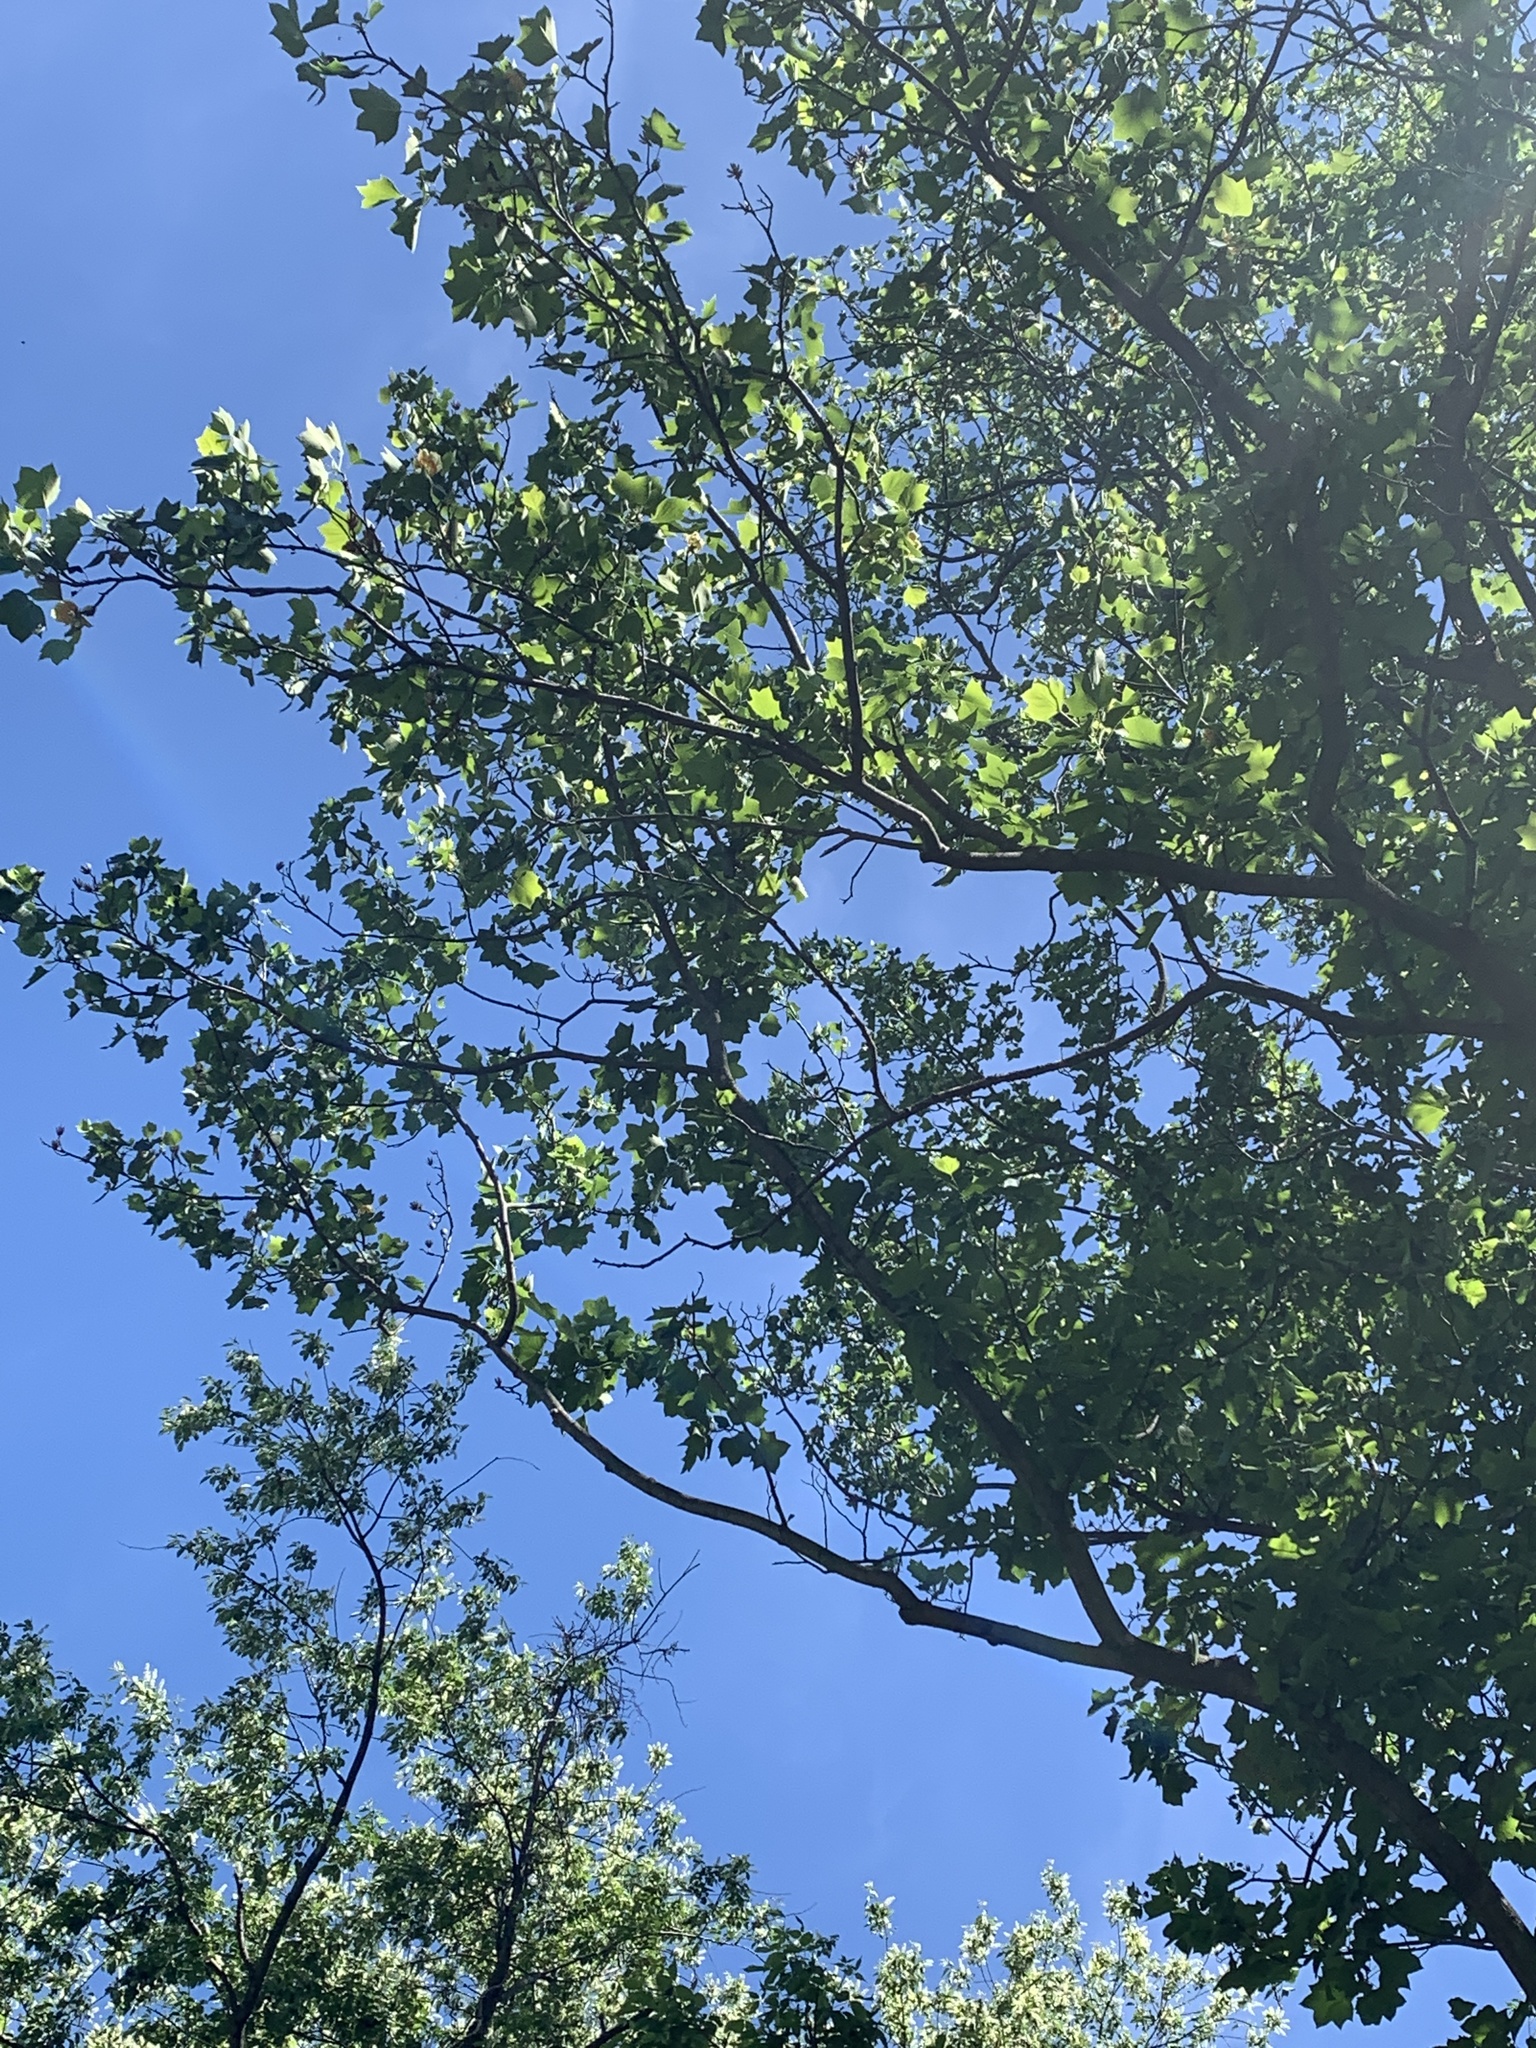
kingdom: Plantae
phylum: Tracheophyta
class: Magnoliopsida
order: Magnoliales
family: Magnoliaceae
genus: Liriodendron
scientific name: Liriodendron tulipifera
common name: Tulip tree
